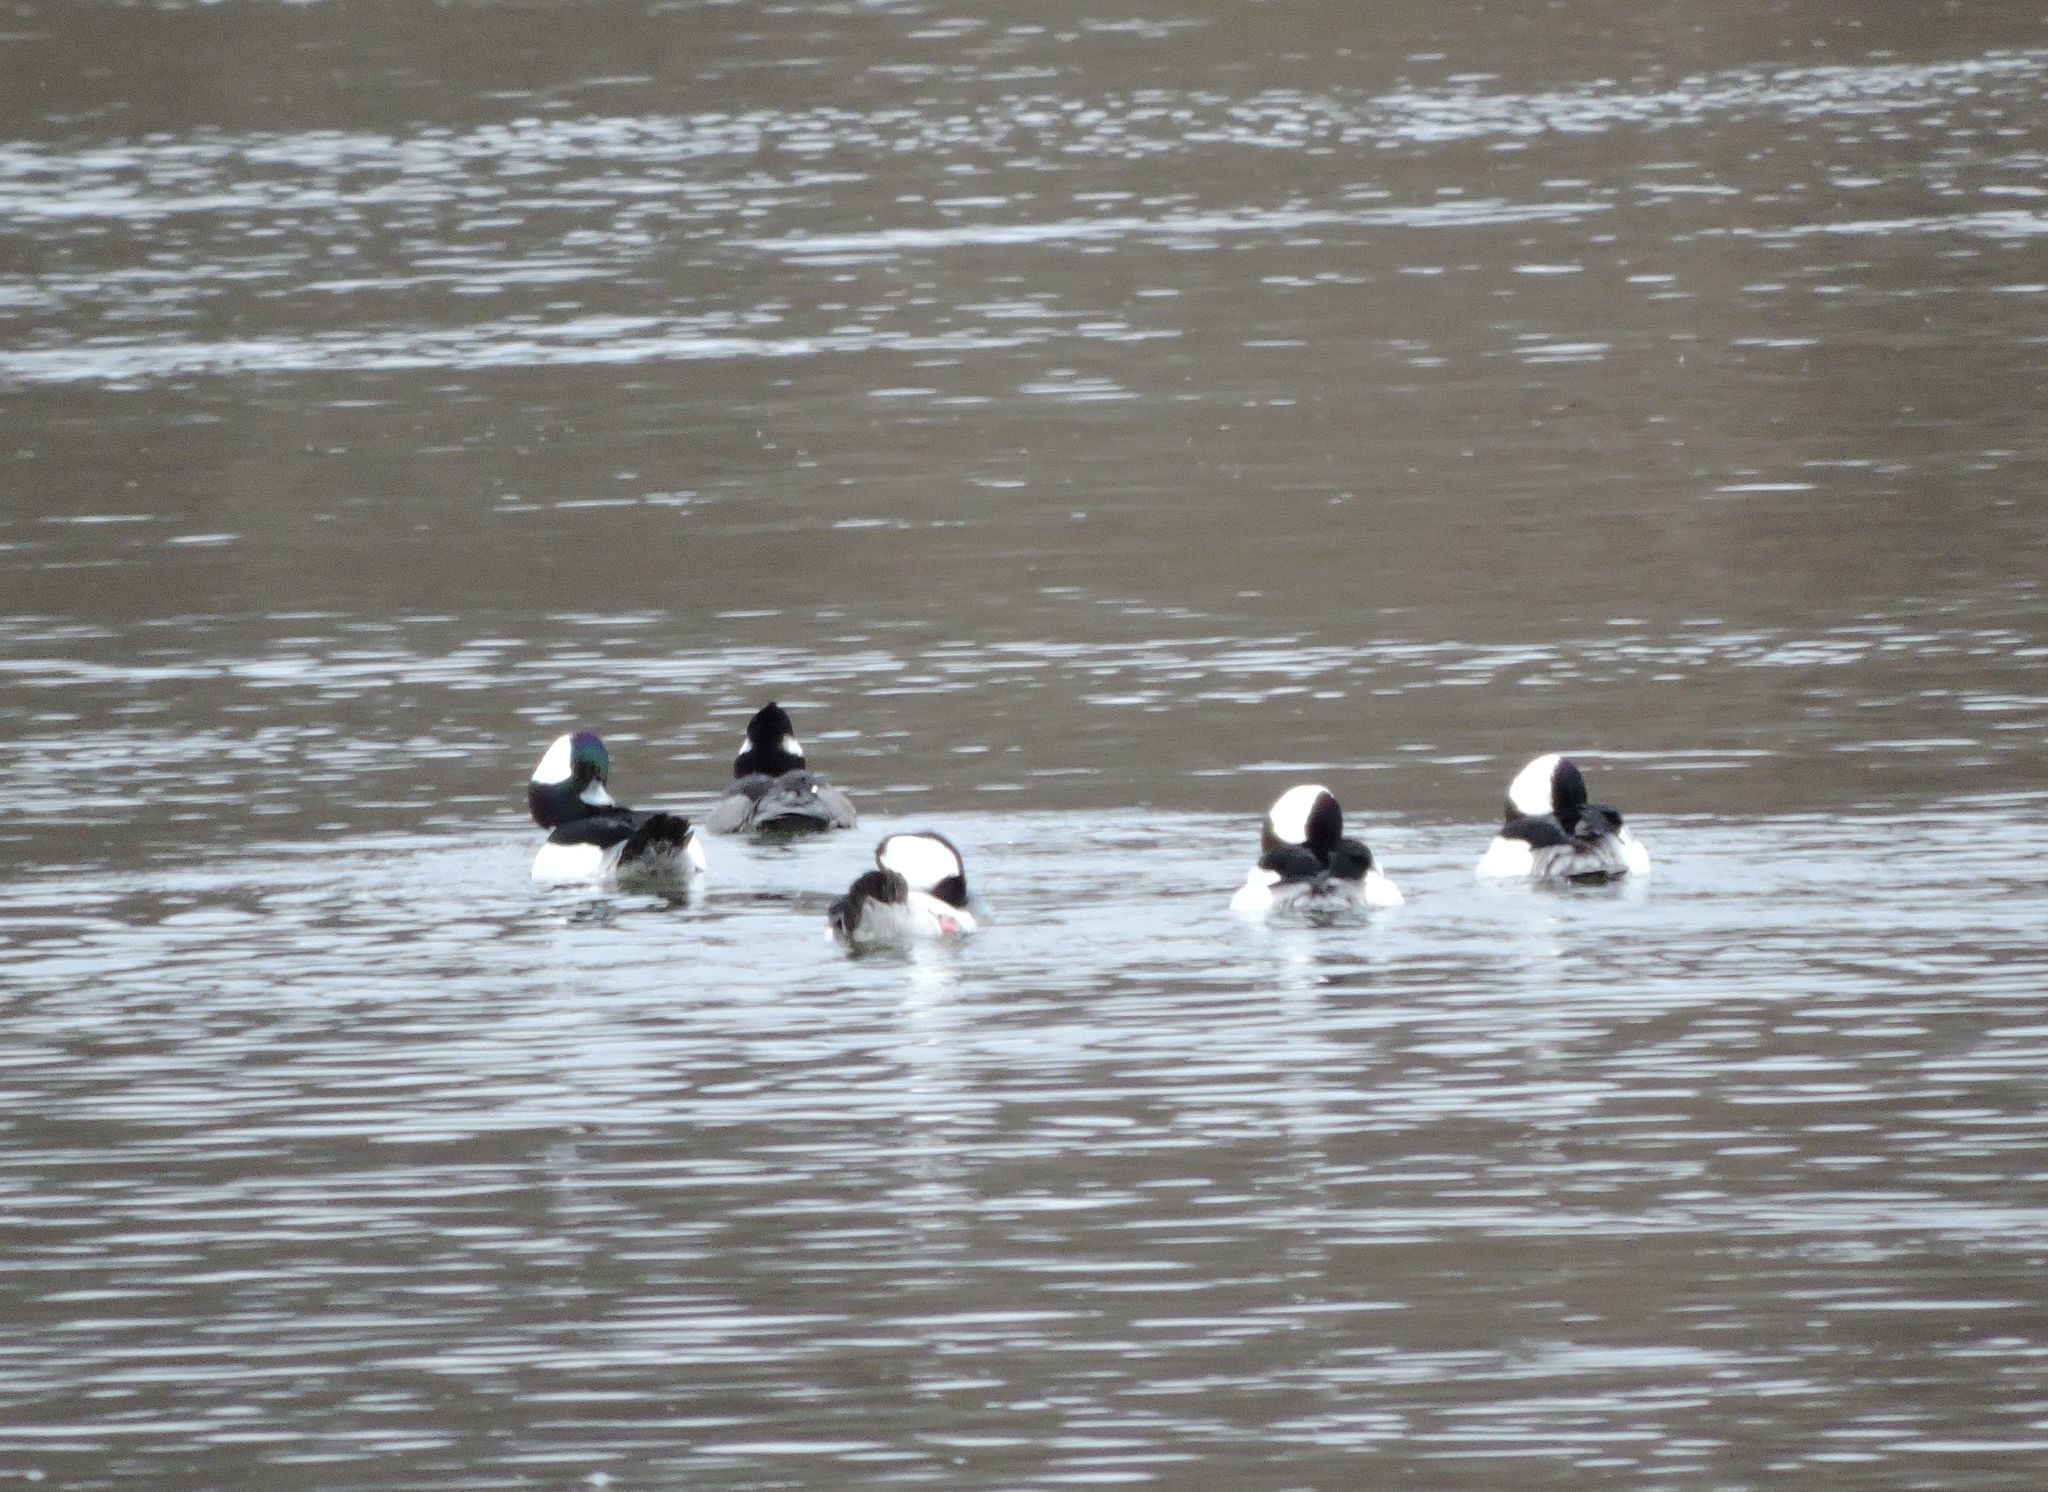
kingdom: Animalia
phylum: Chordata
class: Aves
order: Anseriformes
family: Anatidae
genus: Bucephala
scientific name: Bucephala albeola
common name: Bufflehead
